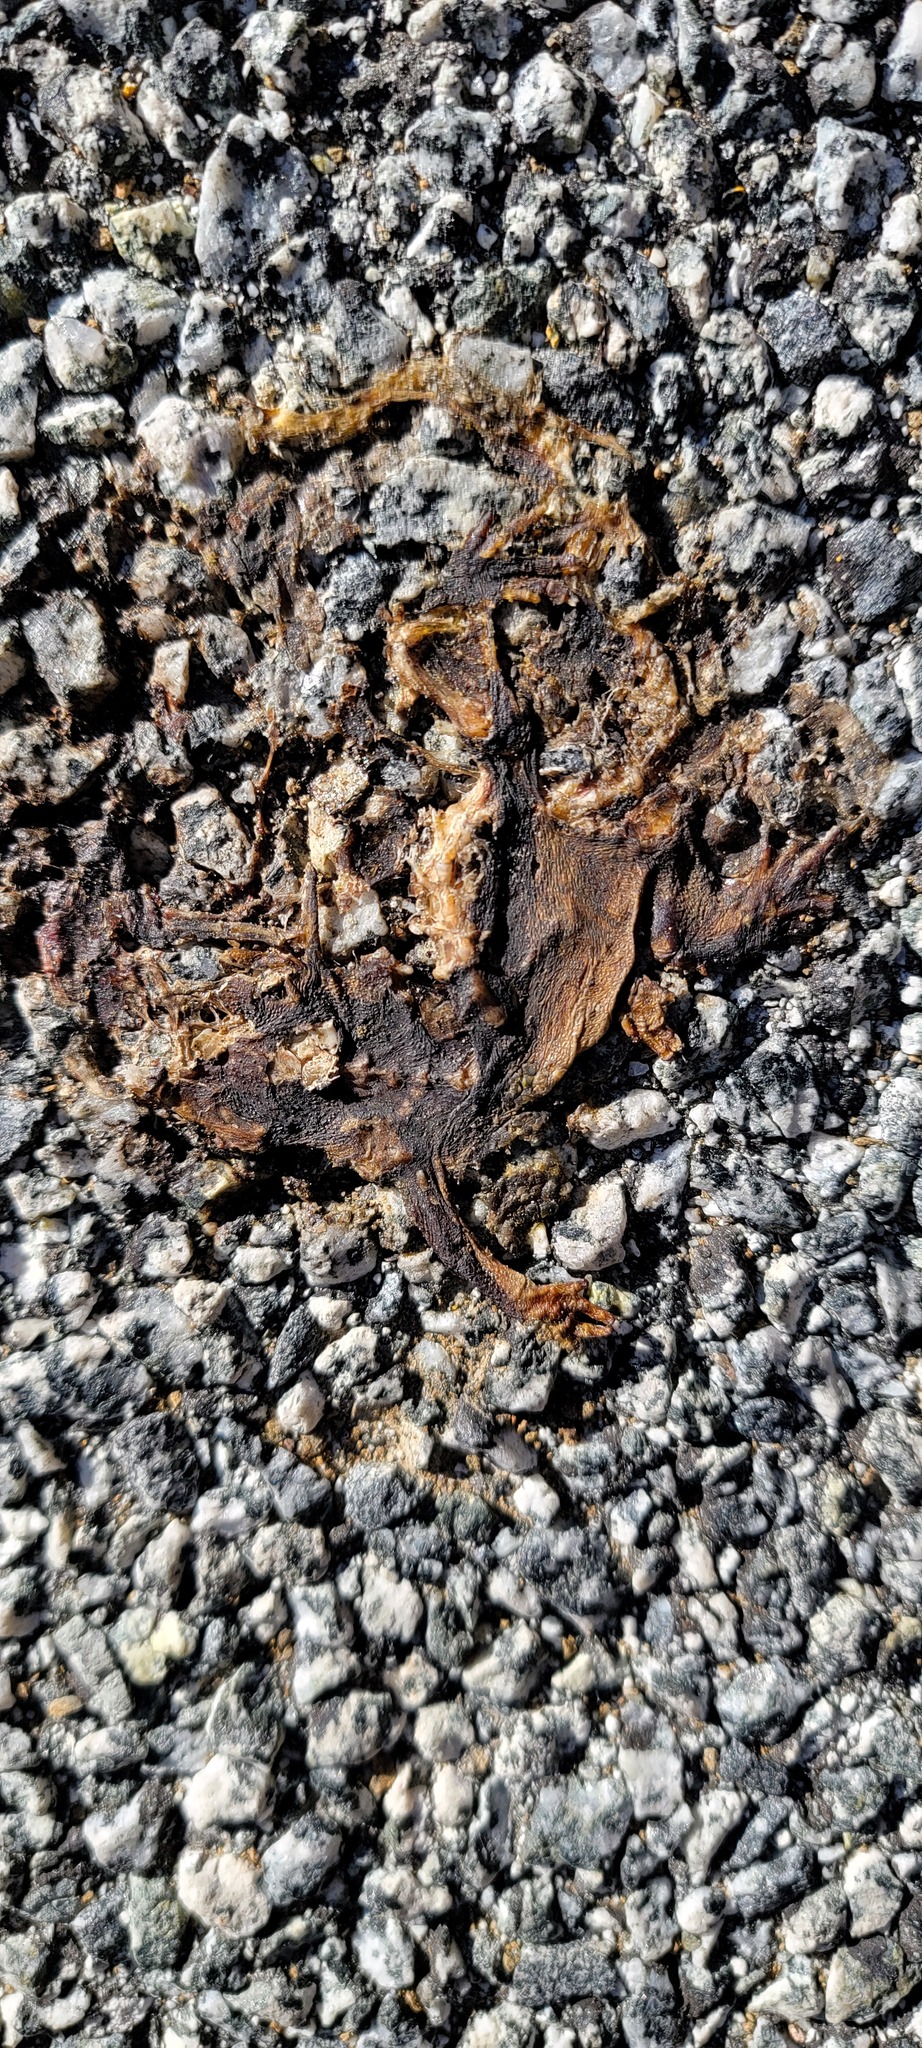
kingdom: Animalia
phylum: Chordata
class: Amphibia
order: Caudata
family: Salamandridae
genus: Taricha
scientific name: Taricha
